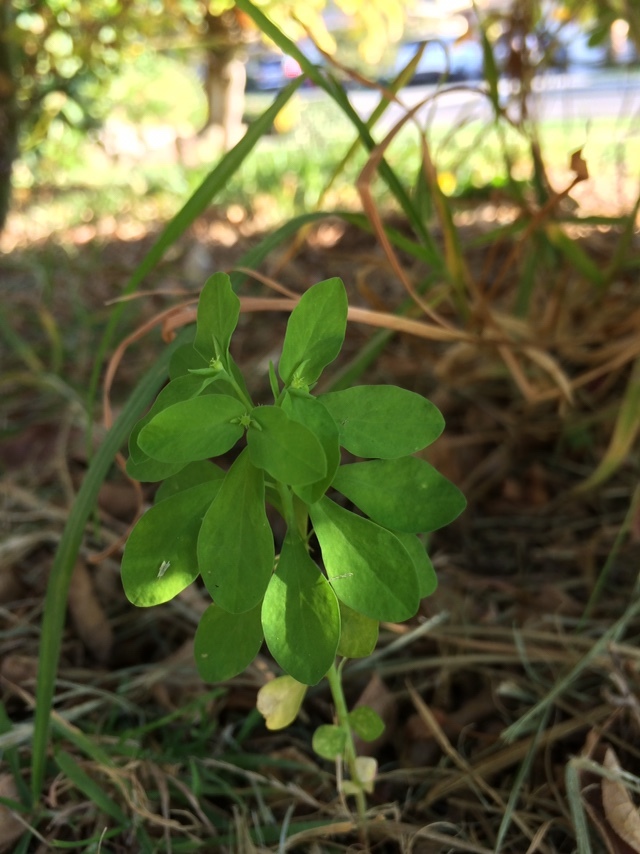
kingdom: Plantae
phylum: Tracheophyta
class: Magnoliopsida
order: Malpighiales
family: Euphorbiaceae
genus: Euphorbia
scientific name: Euphorbia peplus
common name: Petty spurge
